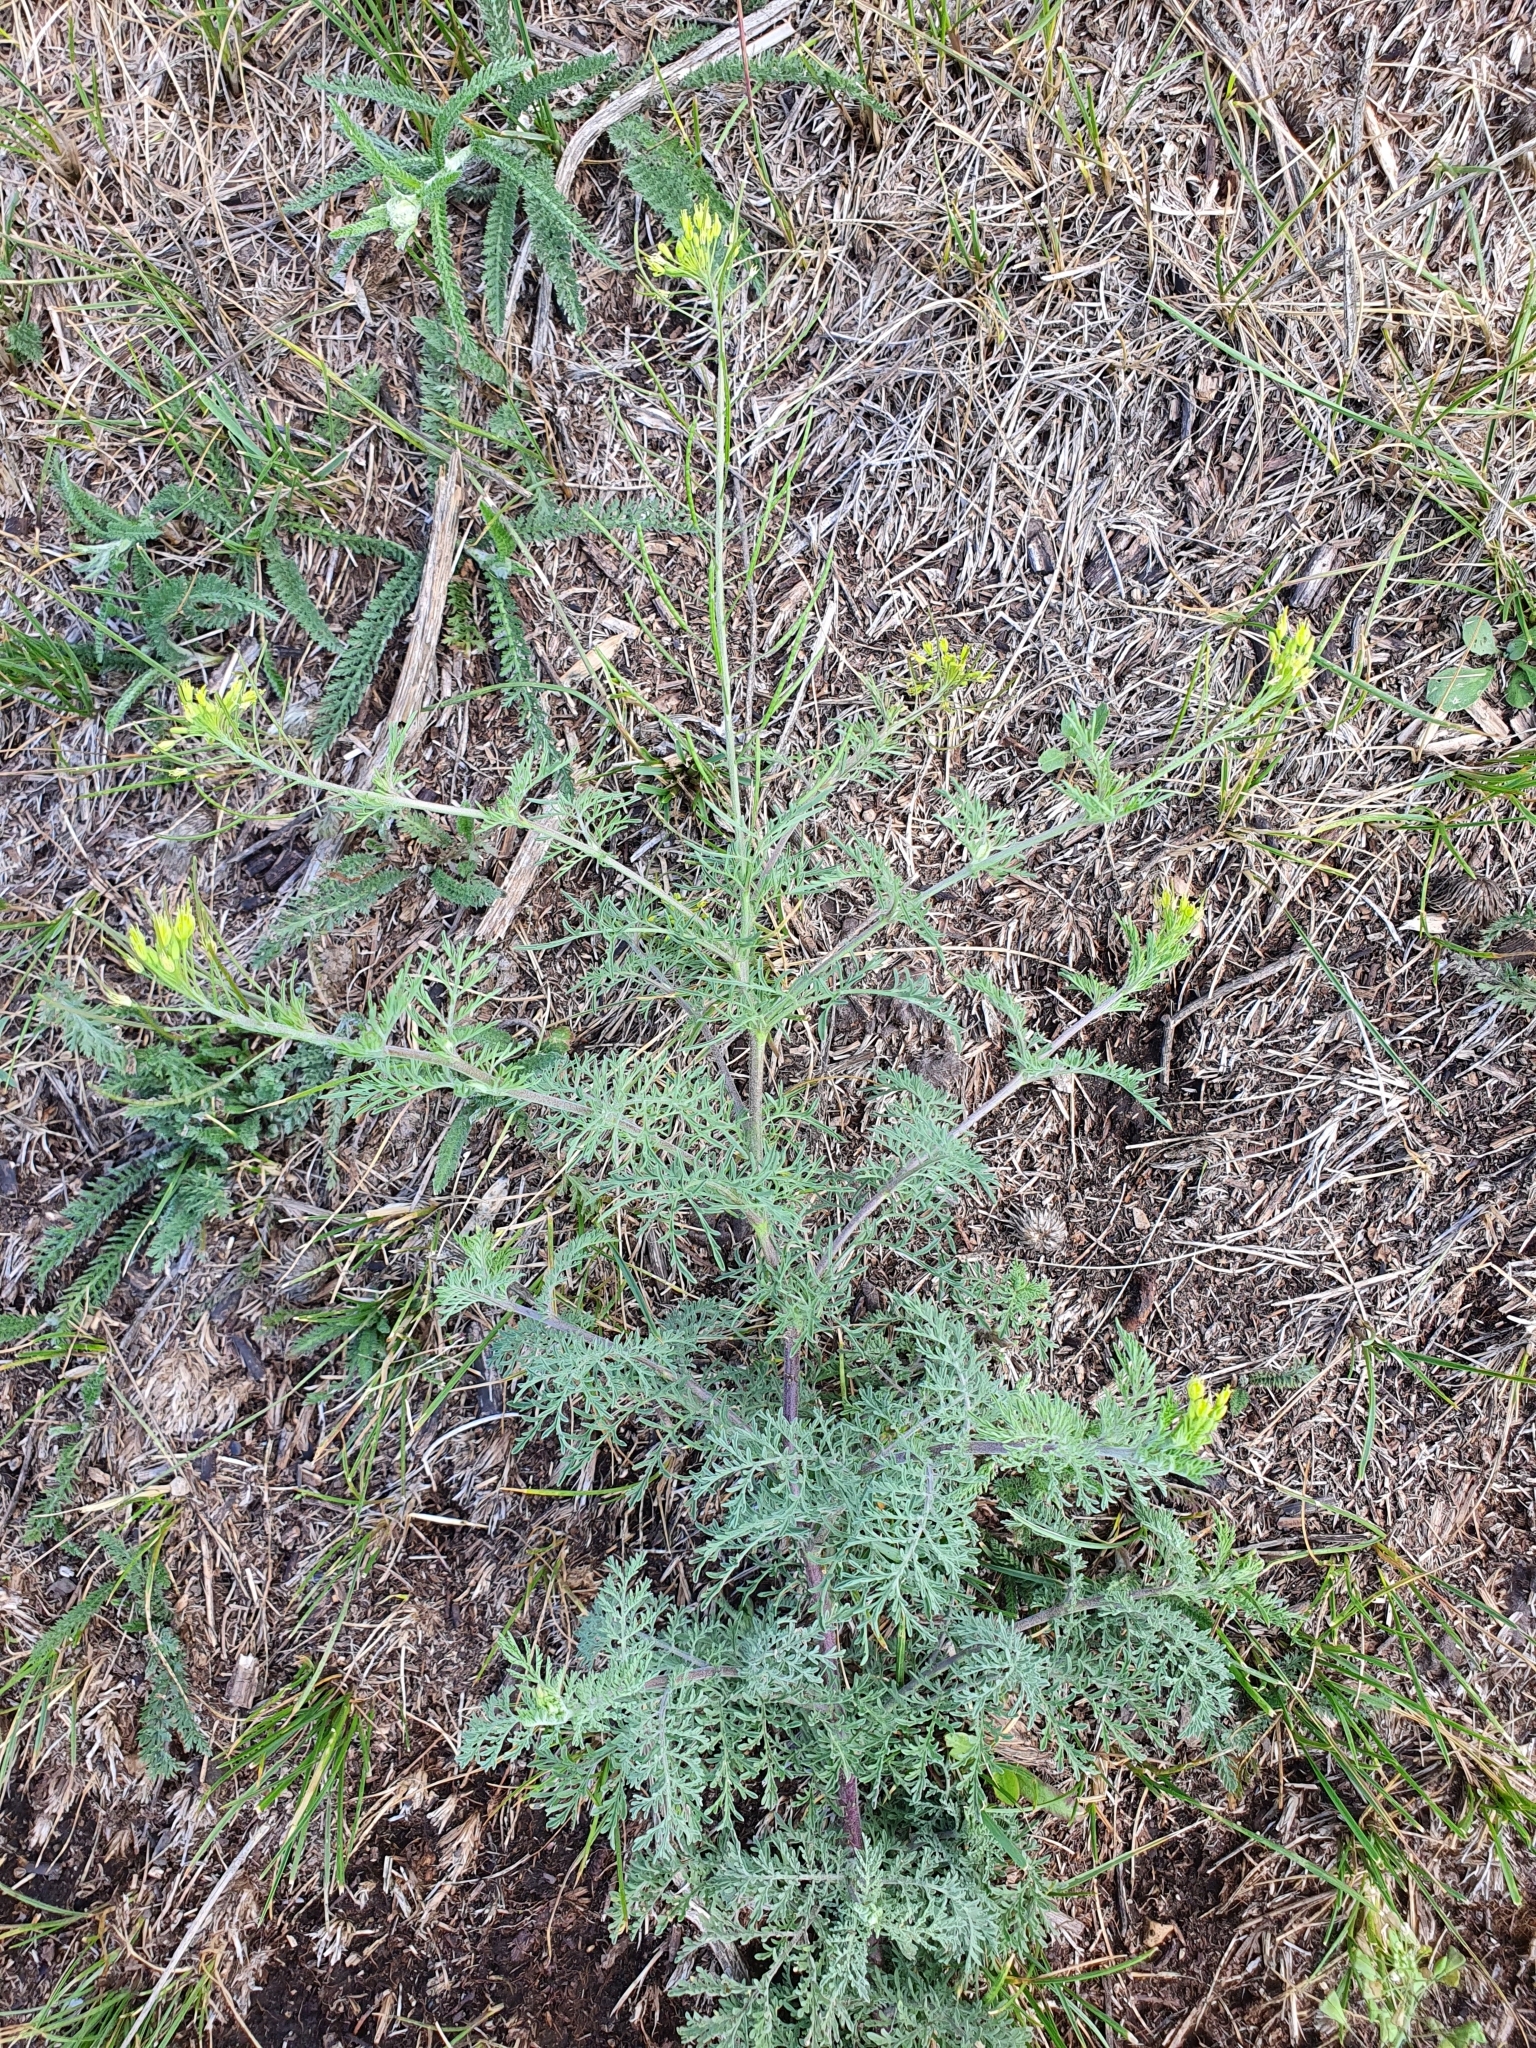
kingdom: Plantae
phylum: Tracheophyta
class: Magnoliopsida
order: Brassicales
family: Brassicaceae
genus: Descurainia
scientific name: Descurainia sophia
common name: Flixweed
